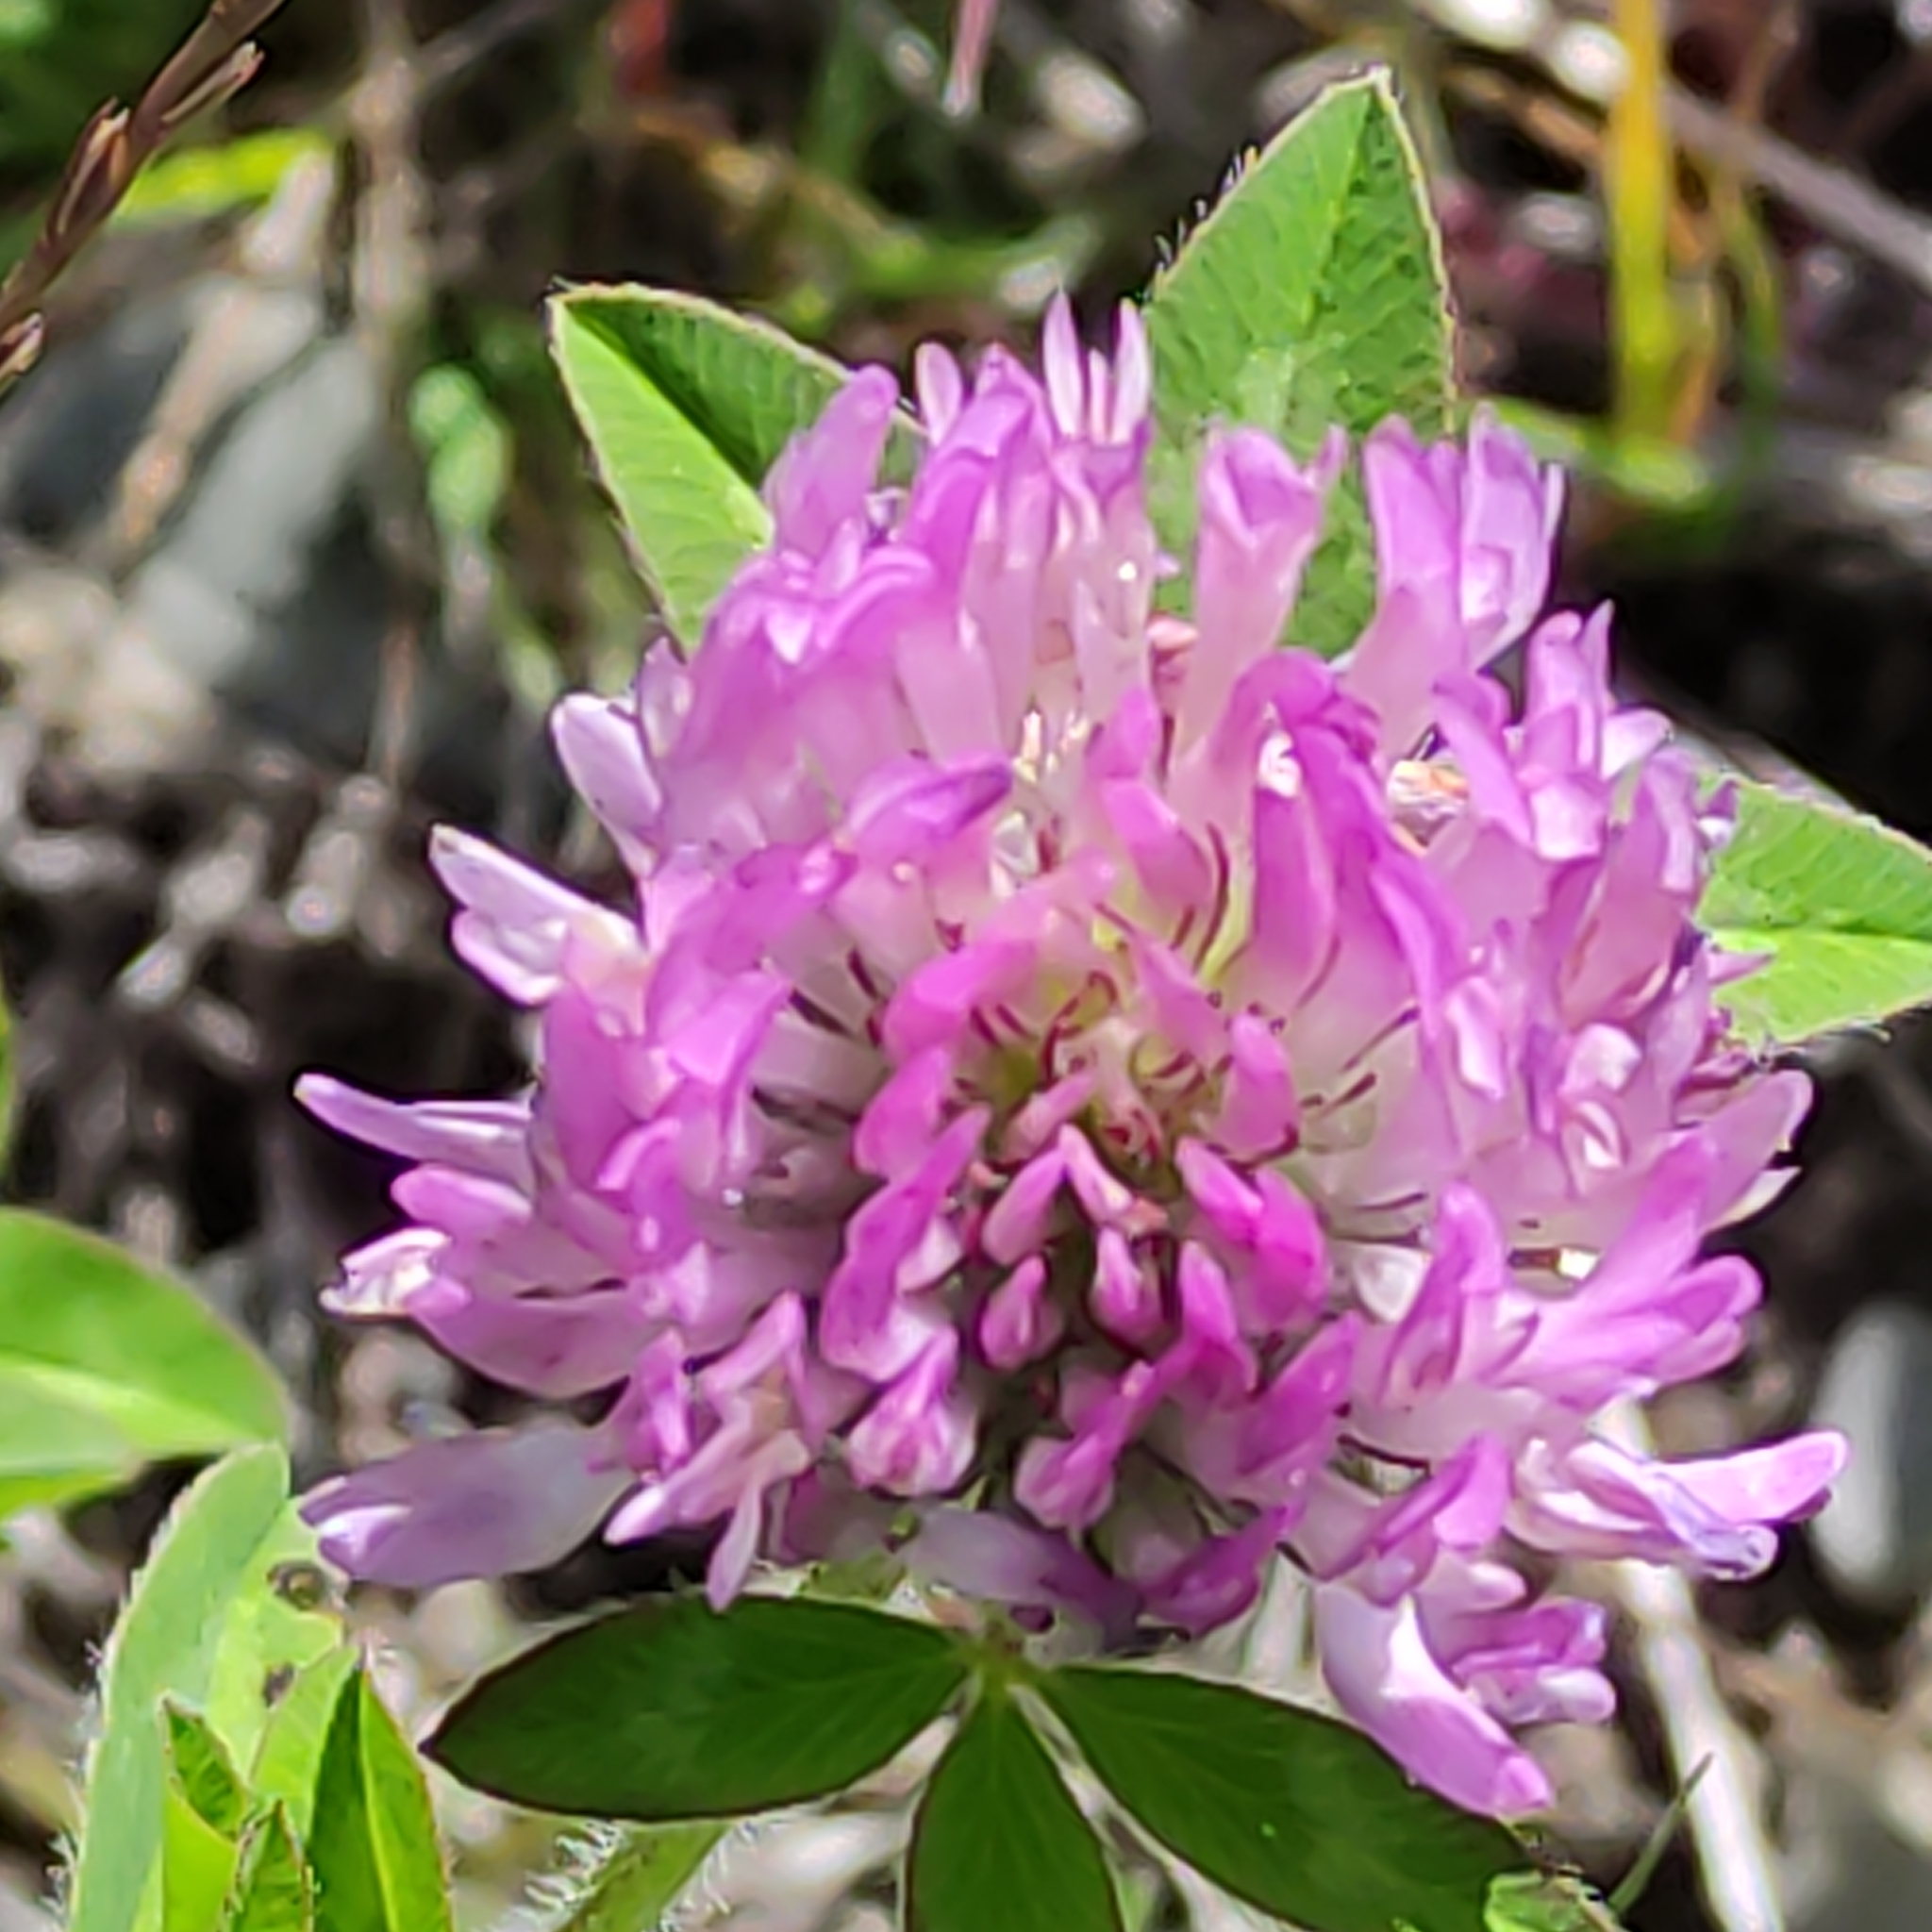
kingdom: Plantae
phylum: Tracheophyta
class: Magnoliopsida
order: Fabales
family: Fabaceae
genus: Trifolium
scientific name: Trifolium pratense
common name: Red clover
